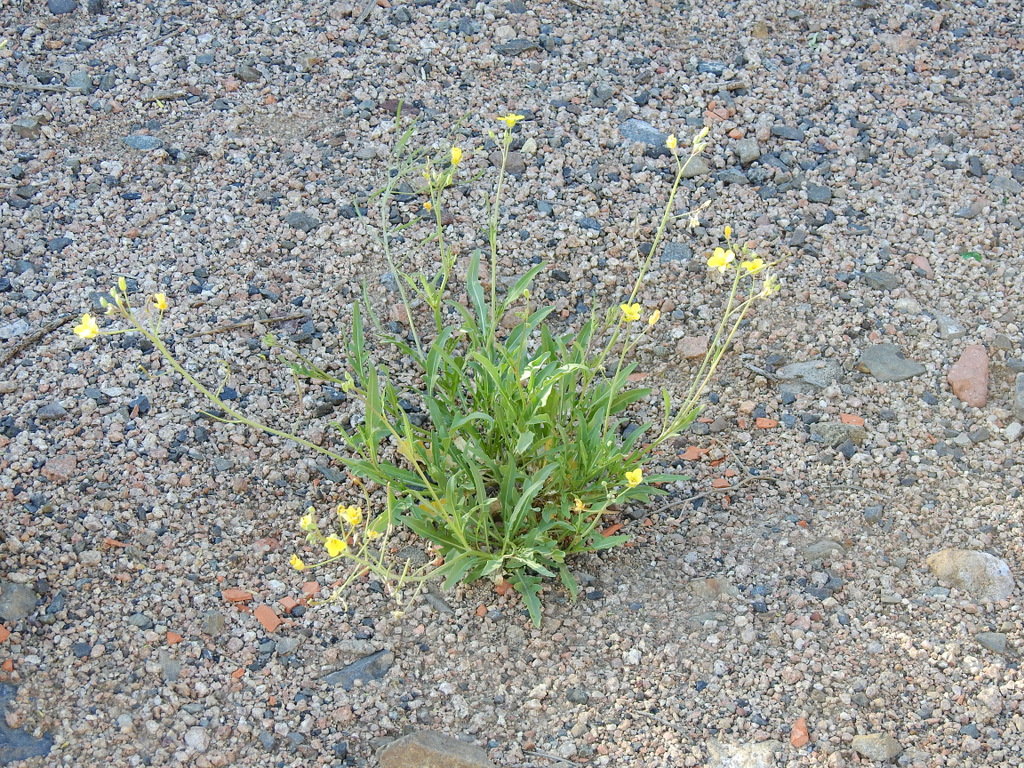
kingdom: Plantae
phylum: Tracheophyta
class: Magnoliopsida
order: Brassicales
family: Brassicaceae
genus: Diplotaxis
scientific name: Diplotaxis tenuifolia
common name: Perennial wall-rocket
